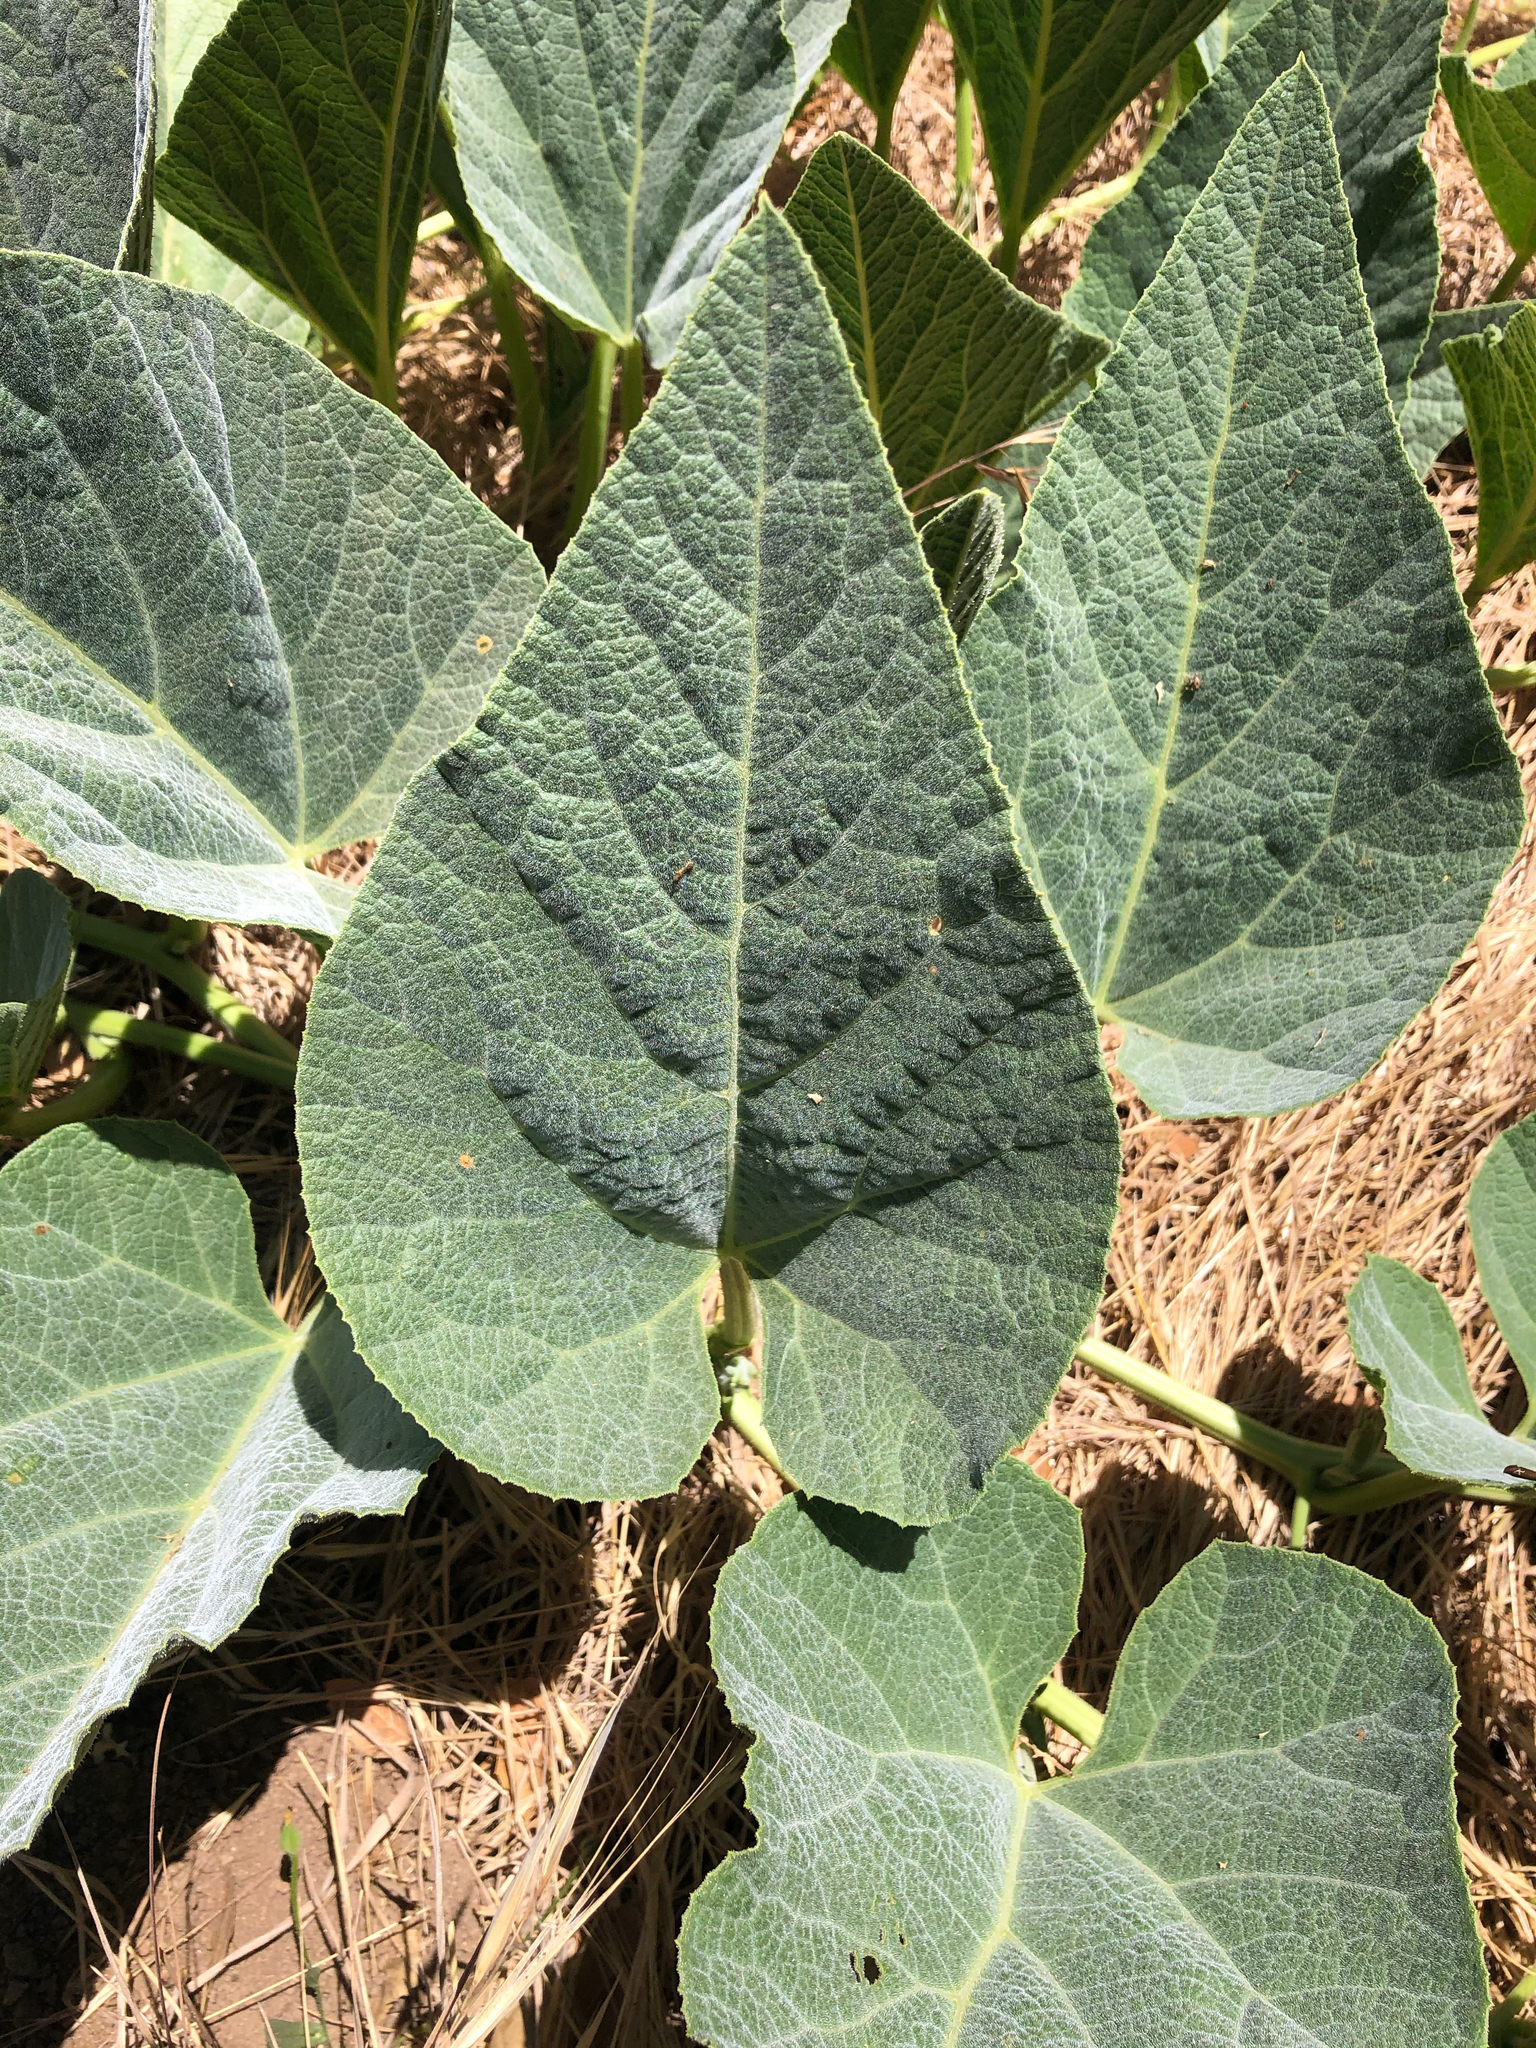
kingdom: Plantae
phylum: Tracheophyta
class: Magnoliopsida
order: Cucurbitales
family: Cucurbitaceae
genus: Cucurbita
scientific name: Cucurbita foetidissima
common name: Buffalo gourd
